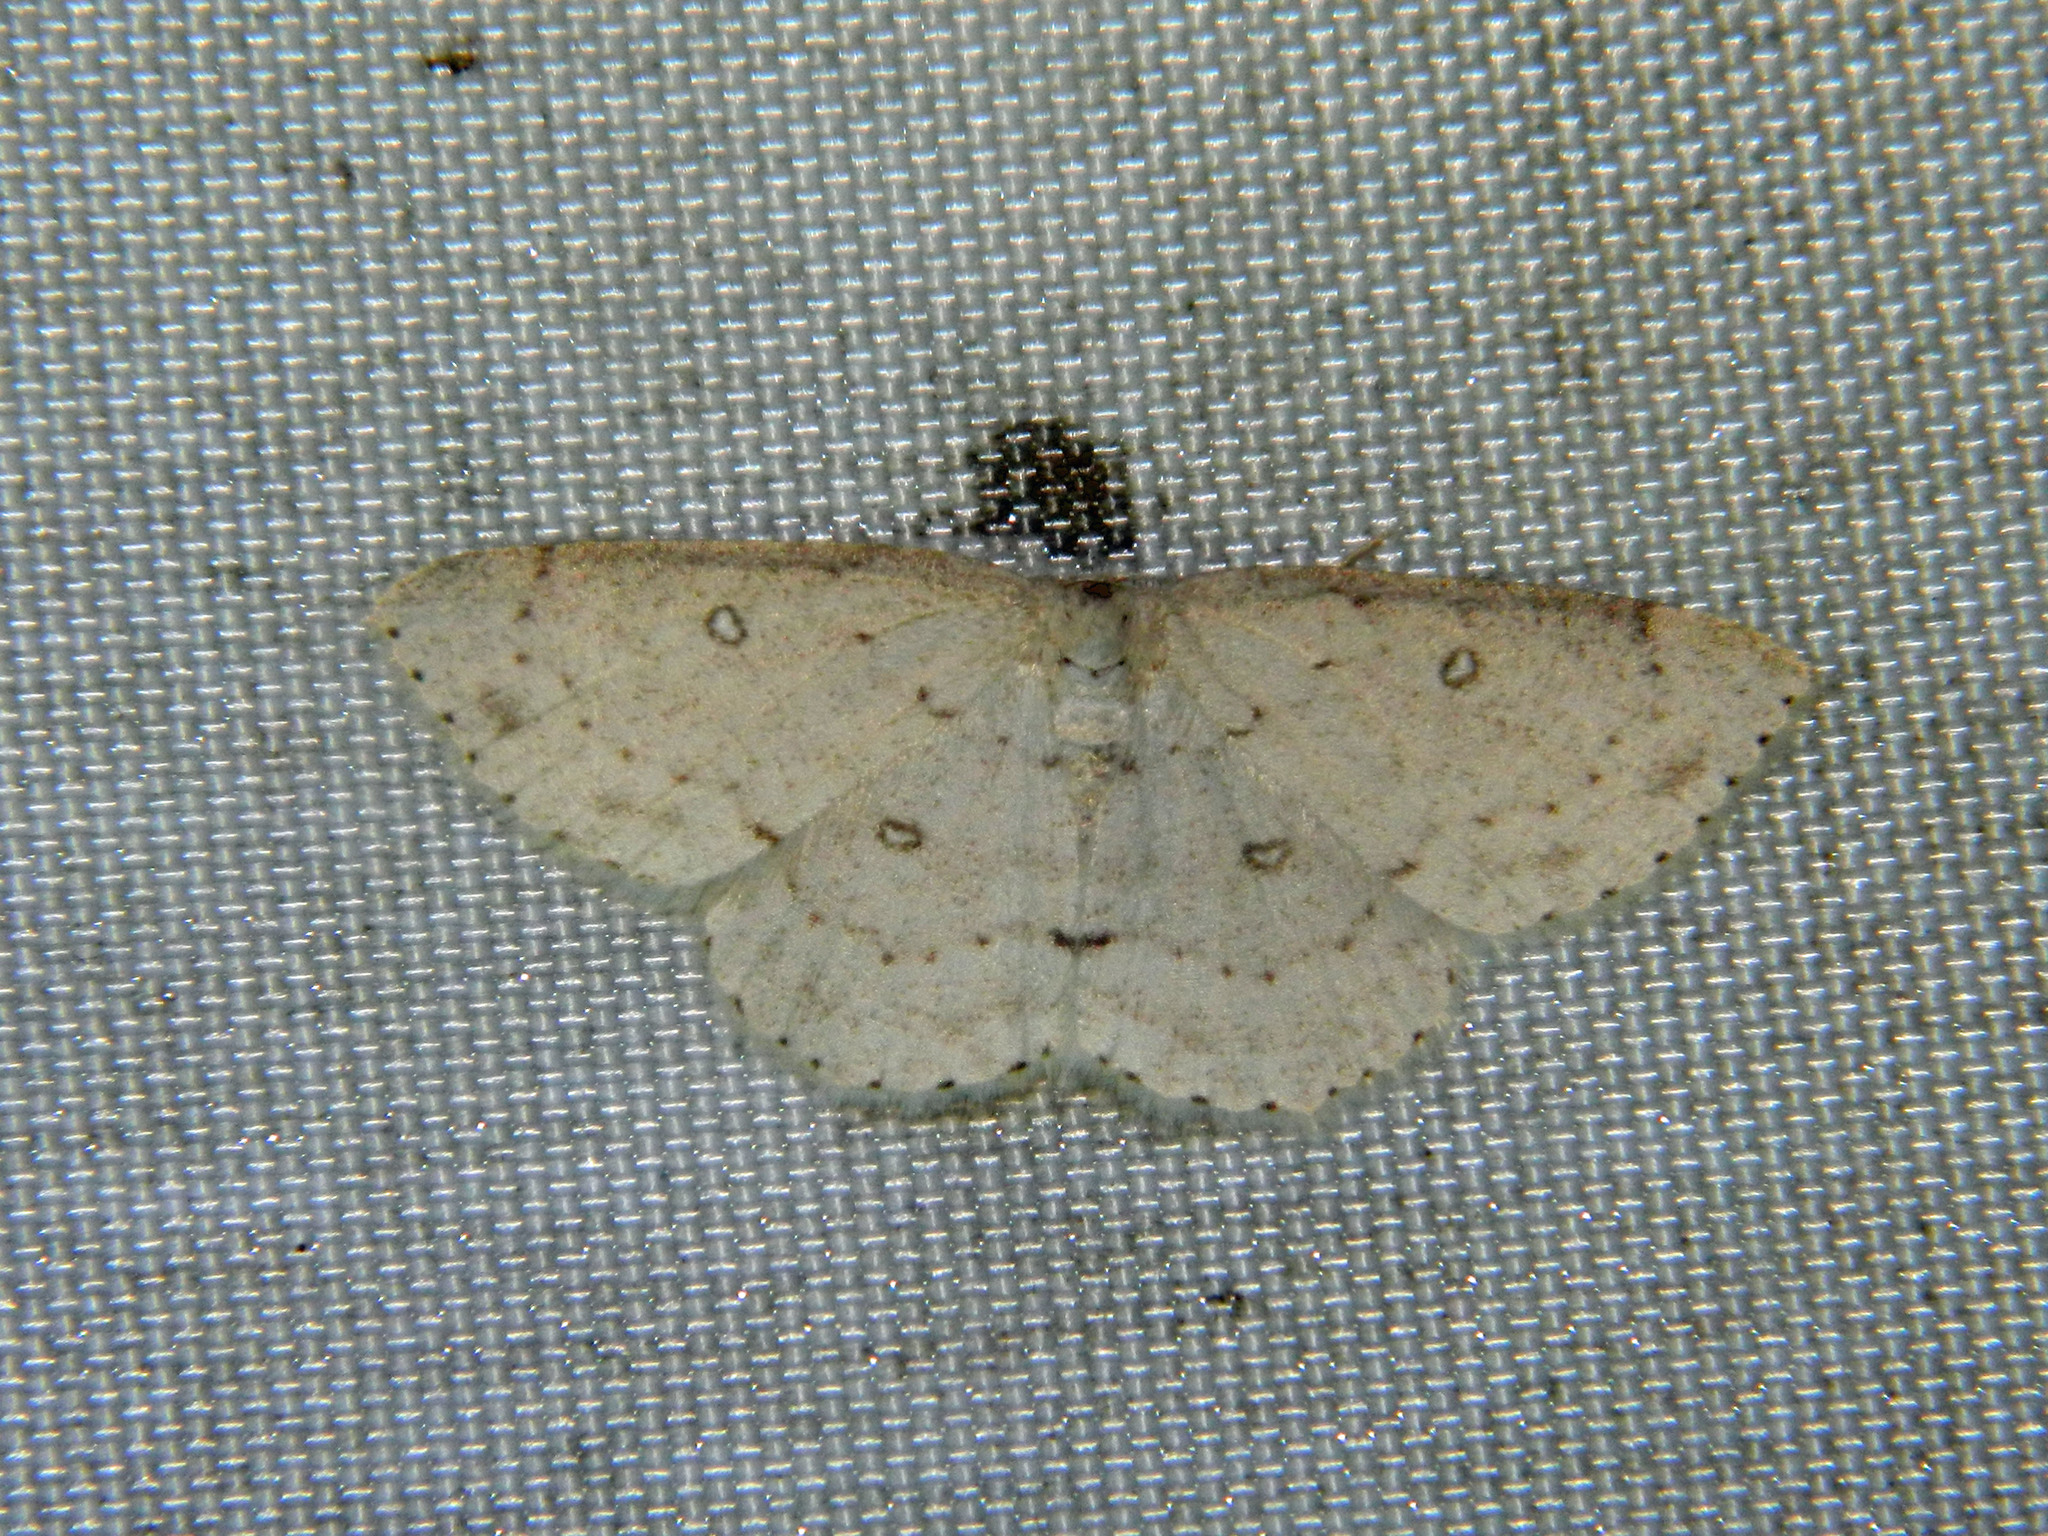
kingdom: Animalia
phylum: Arthropoda
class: Insecta
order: Lepidoptera
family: Geometridae
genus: Cyclophora
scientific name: Cyclophora pendulinaria
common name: Sweet fern geometer
